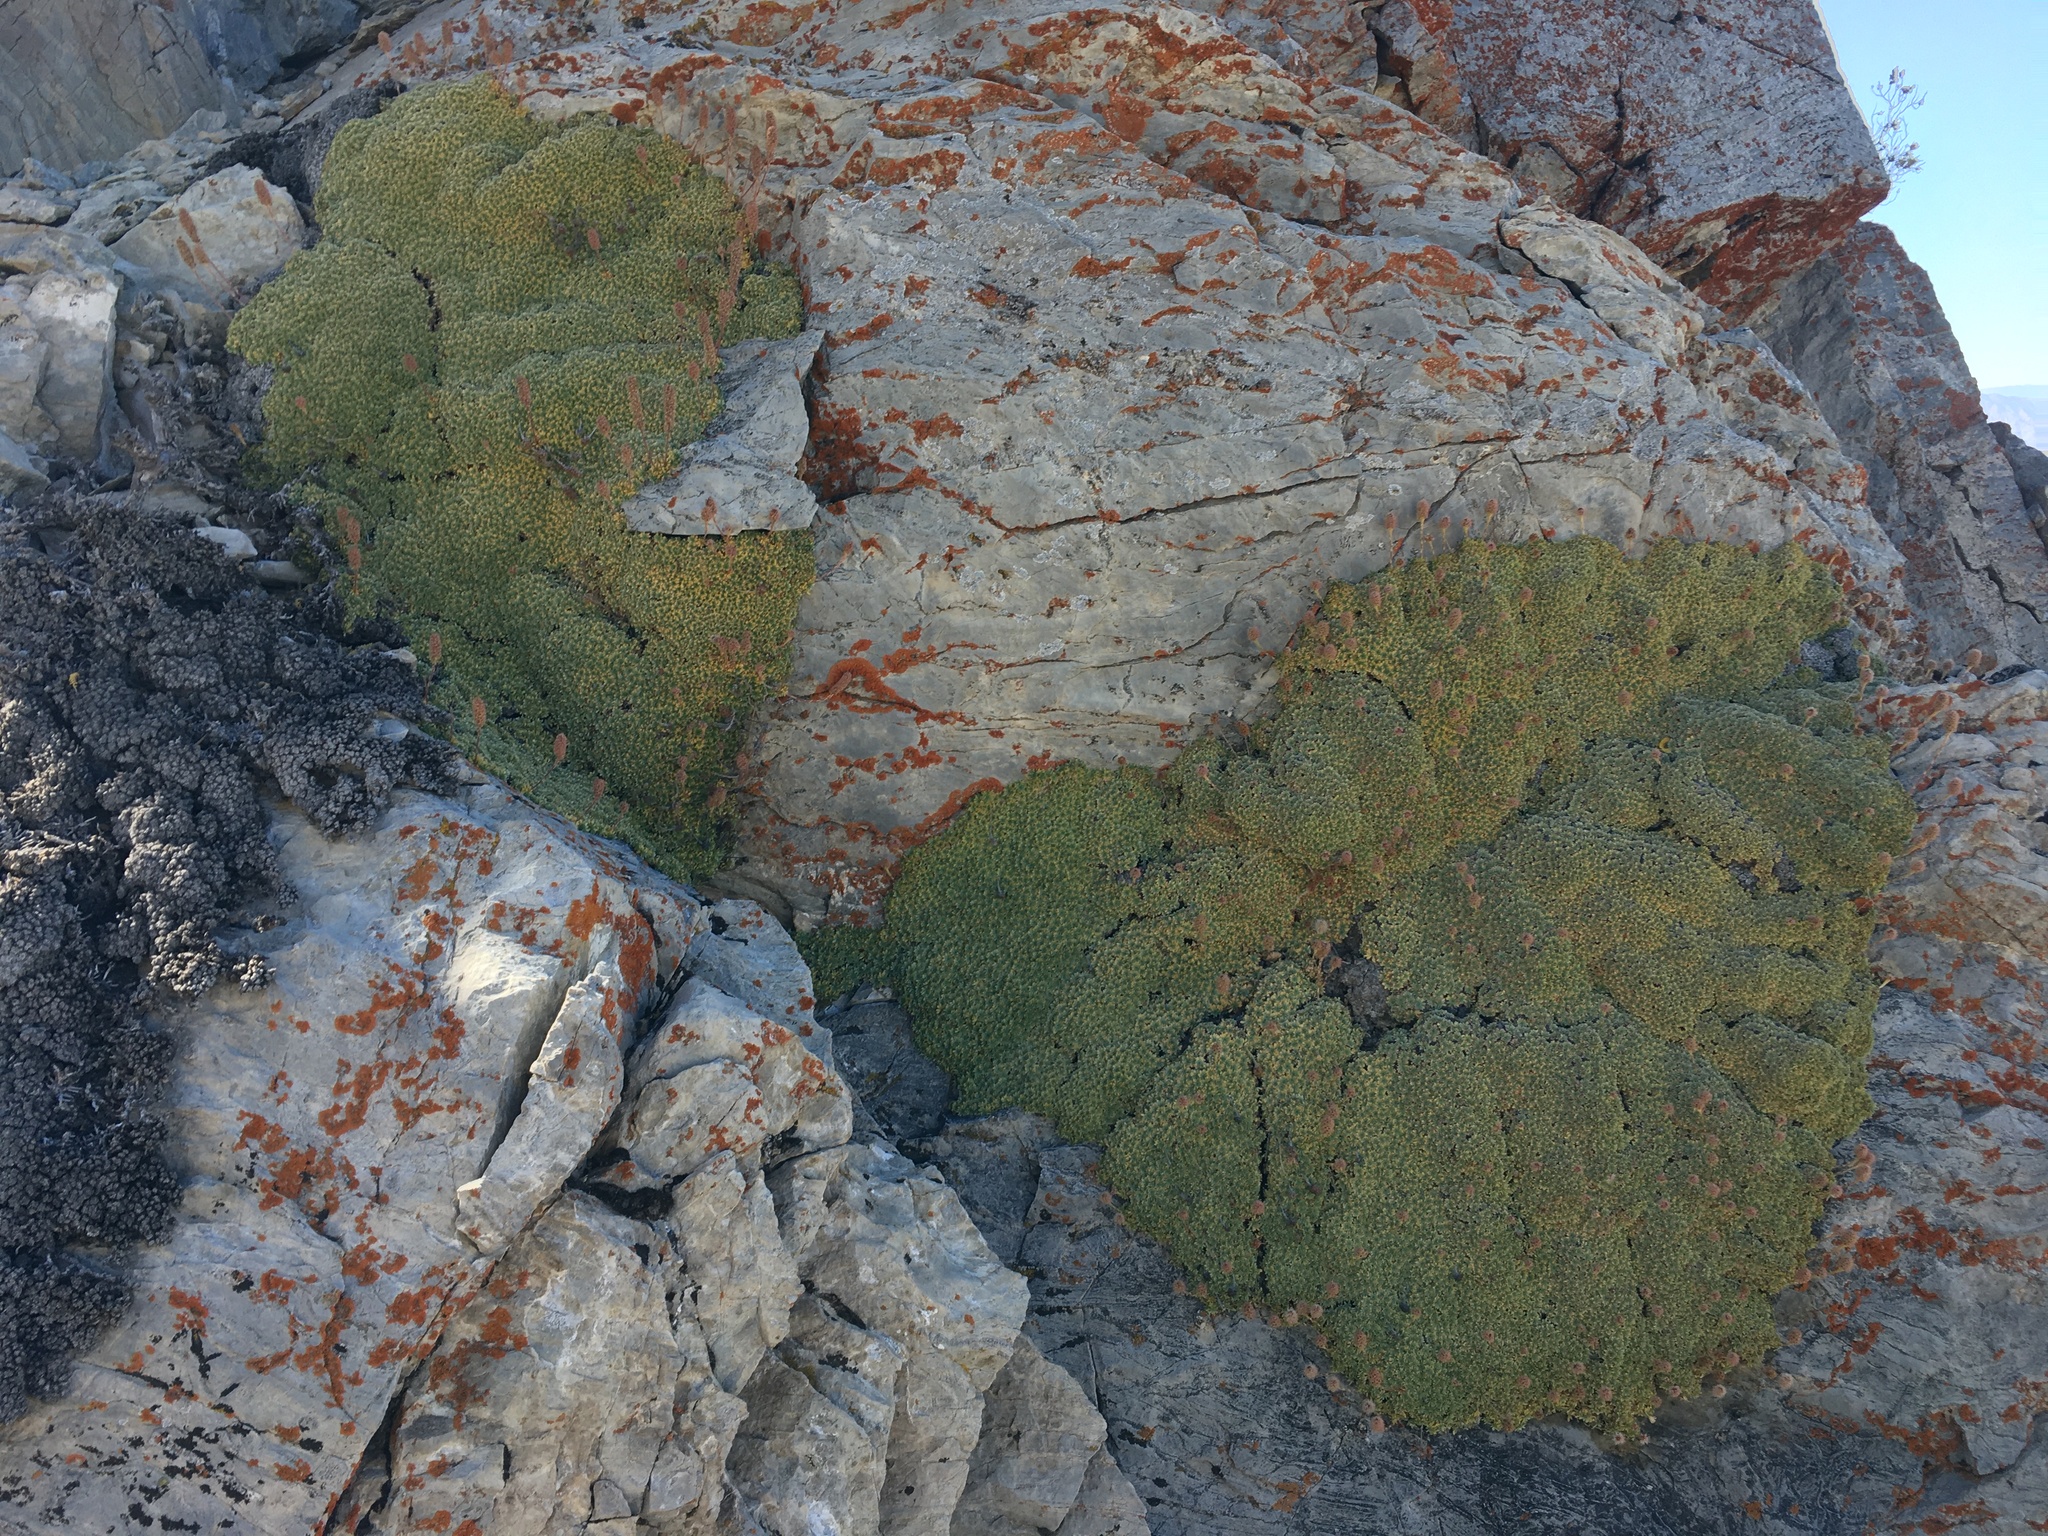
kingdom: Plantae
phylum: Tracheophyta
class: Magnoliopsida
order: Rosales
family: Rosaceae
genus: Petrophytum
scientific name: Petrophytum caespitosum
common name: Mat rockspirea
